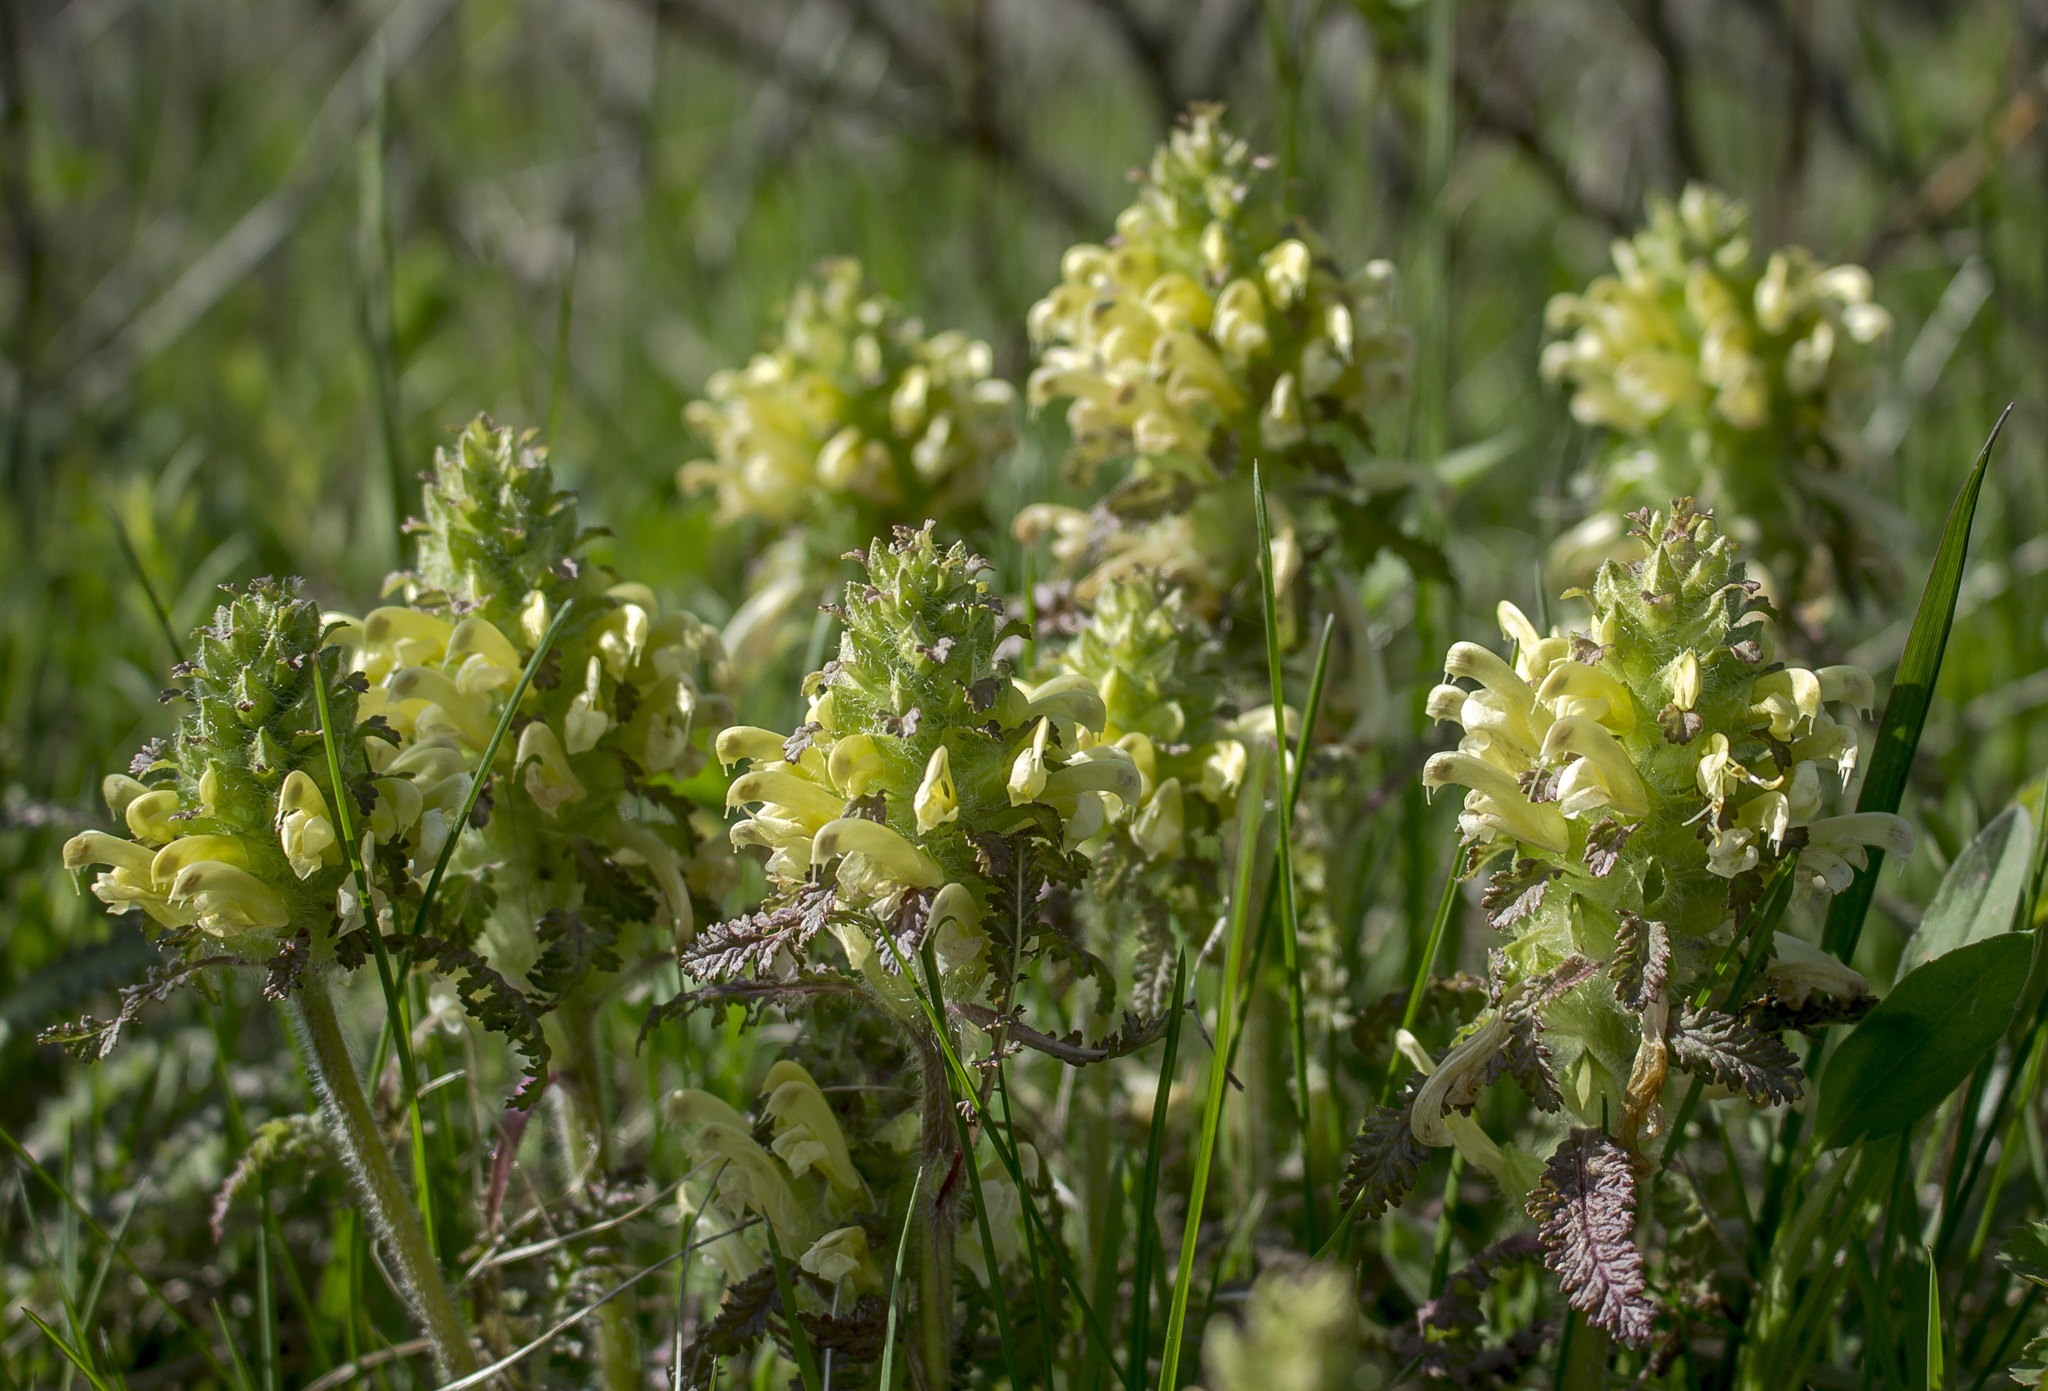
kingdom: Plantae
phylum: Tracheophyta
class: Magnoliopsida
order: Lamiales
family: Orobanchaceae
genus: Pedicularis
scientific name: Pedicularis canadensis
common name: Early lousewort
